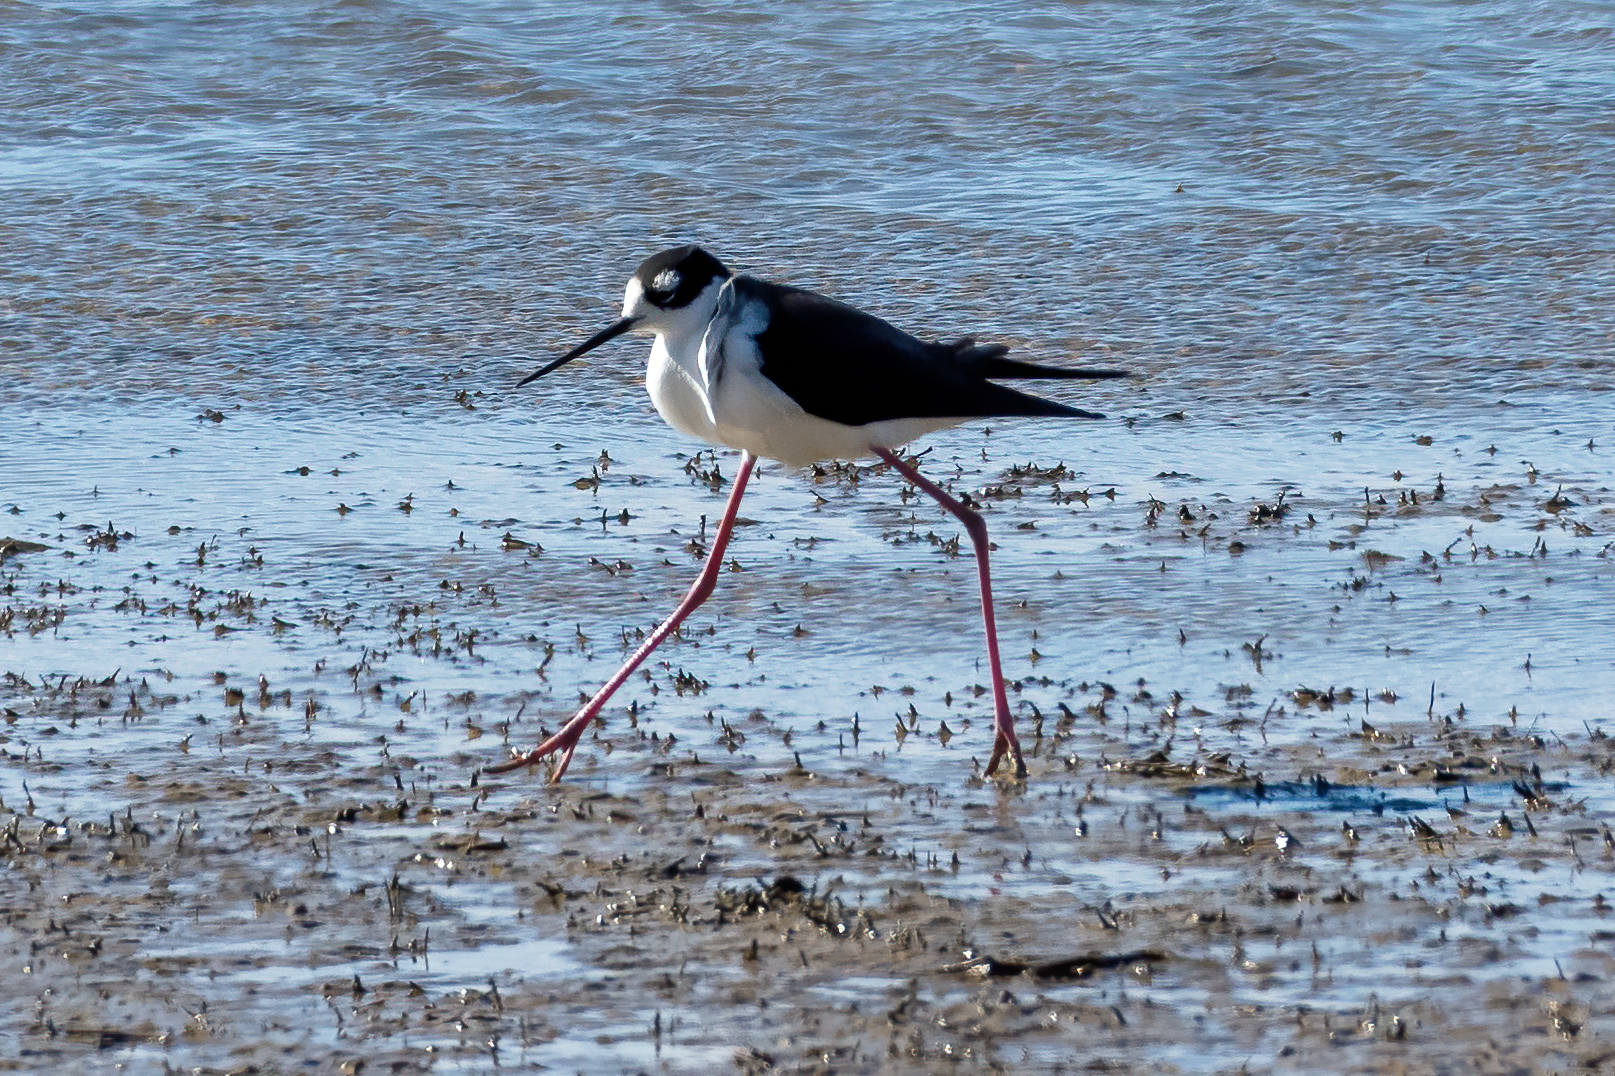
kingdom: Animalia
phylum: Chordata
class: Aves
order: Charadriiformes
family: Recurvirostridae
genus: Himantopus
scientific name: Himantopus mexicanus
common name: Black-necked stilt
